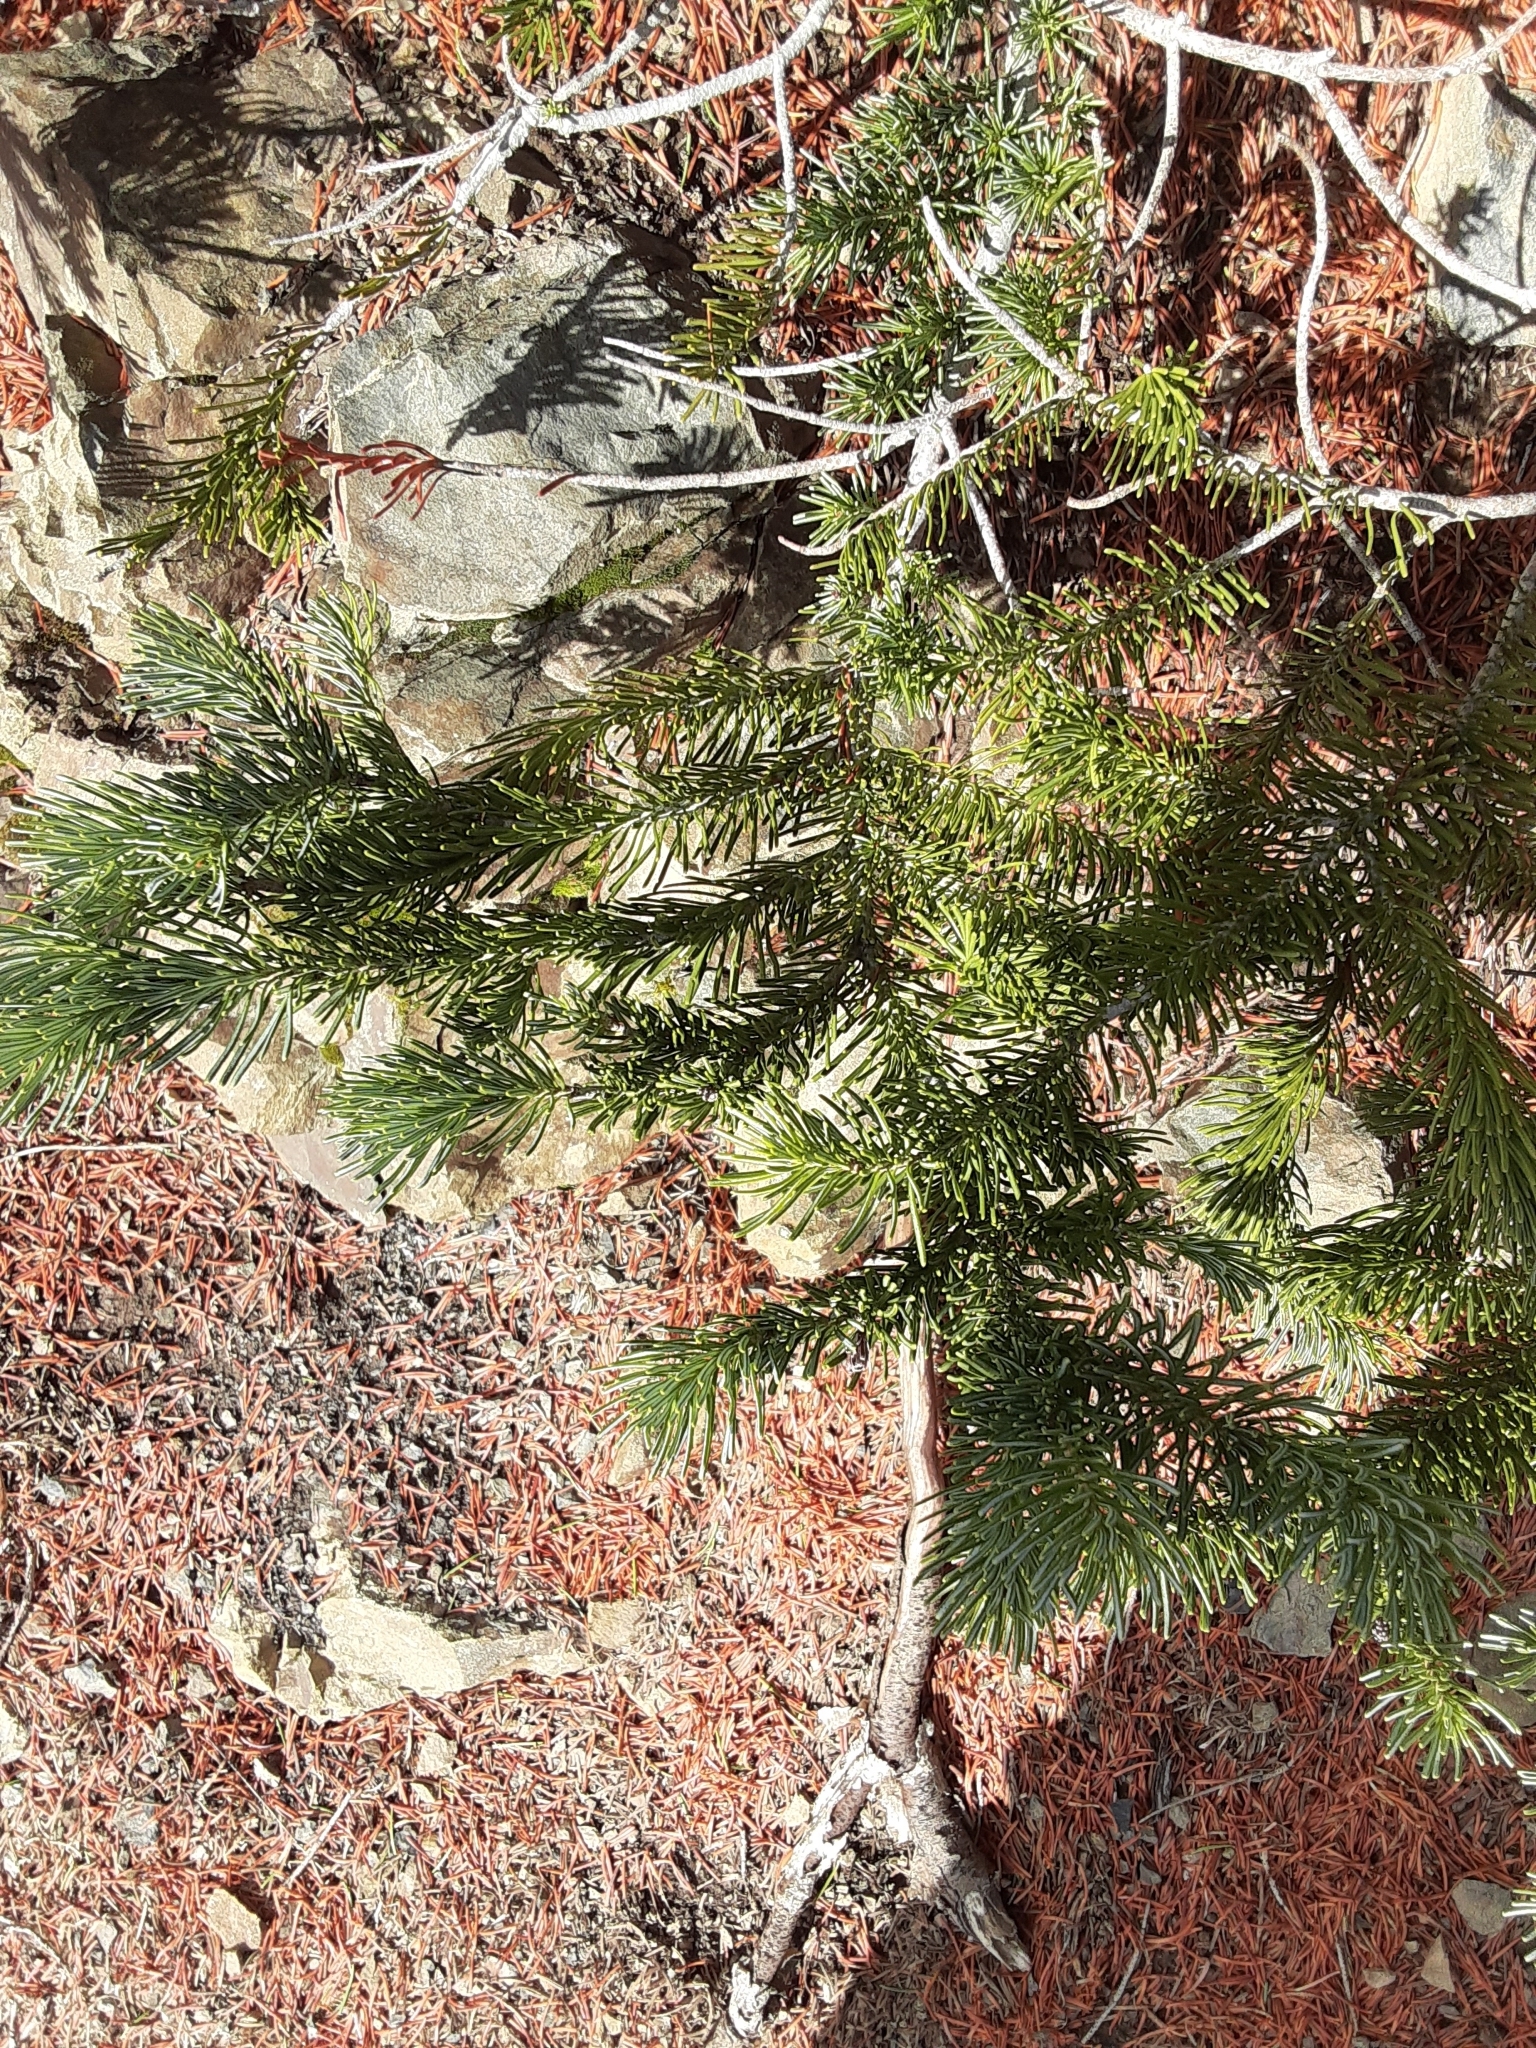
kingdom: Plantae
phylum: Tracheophyta
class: Pinopsida
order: Pinales
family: Pinaceae
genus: Abies
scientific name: Abies lasiocarpa
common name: Subalpine fir
